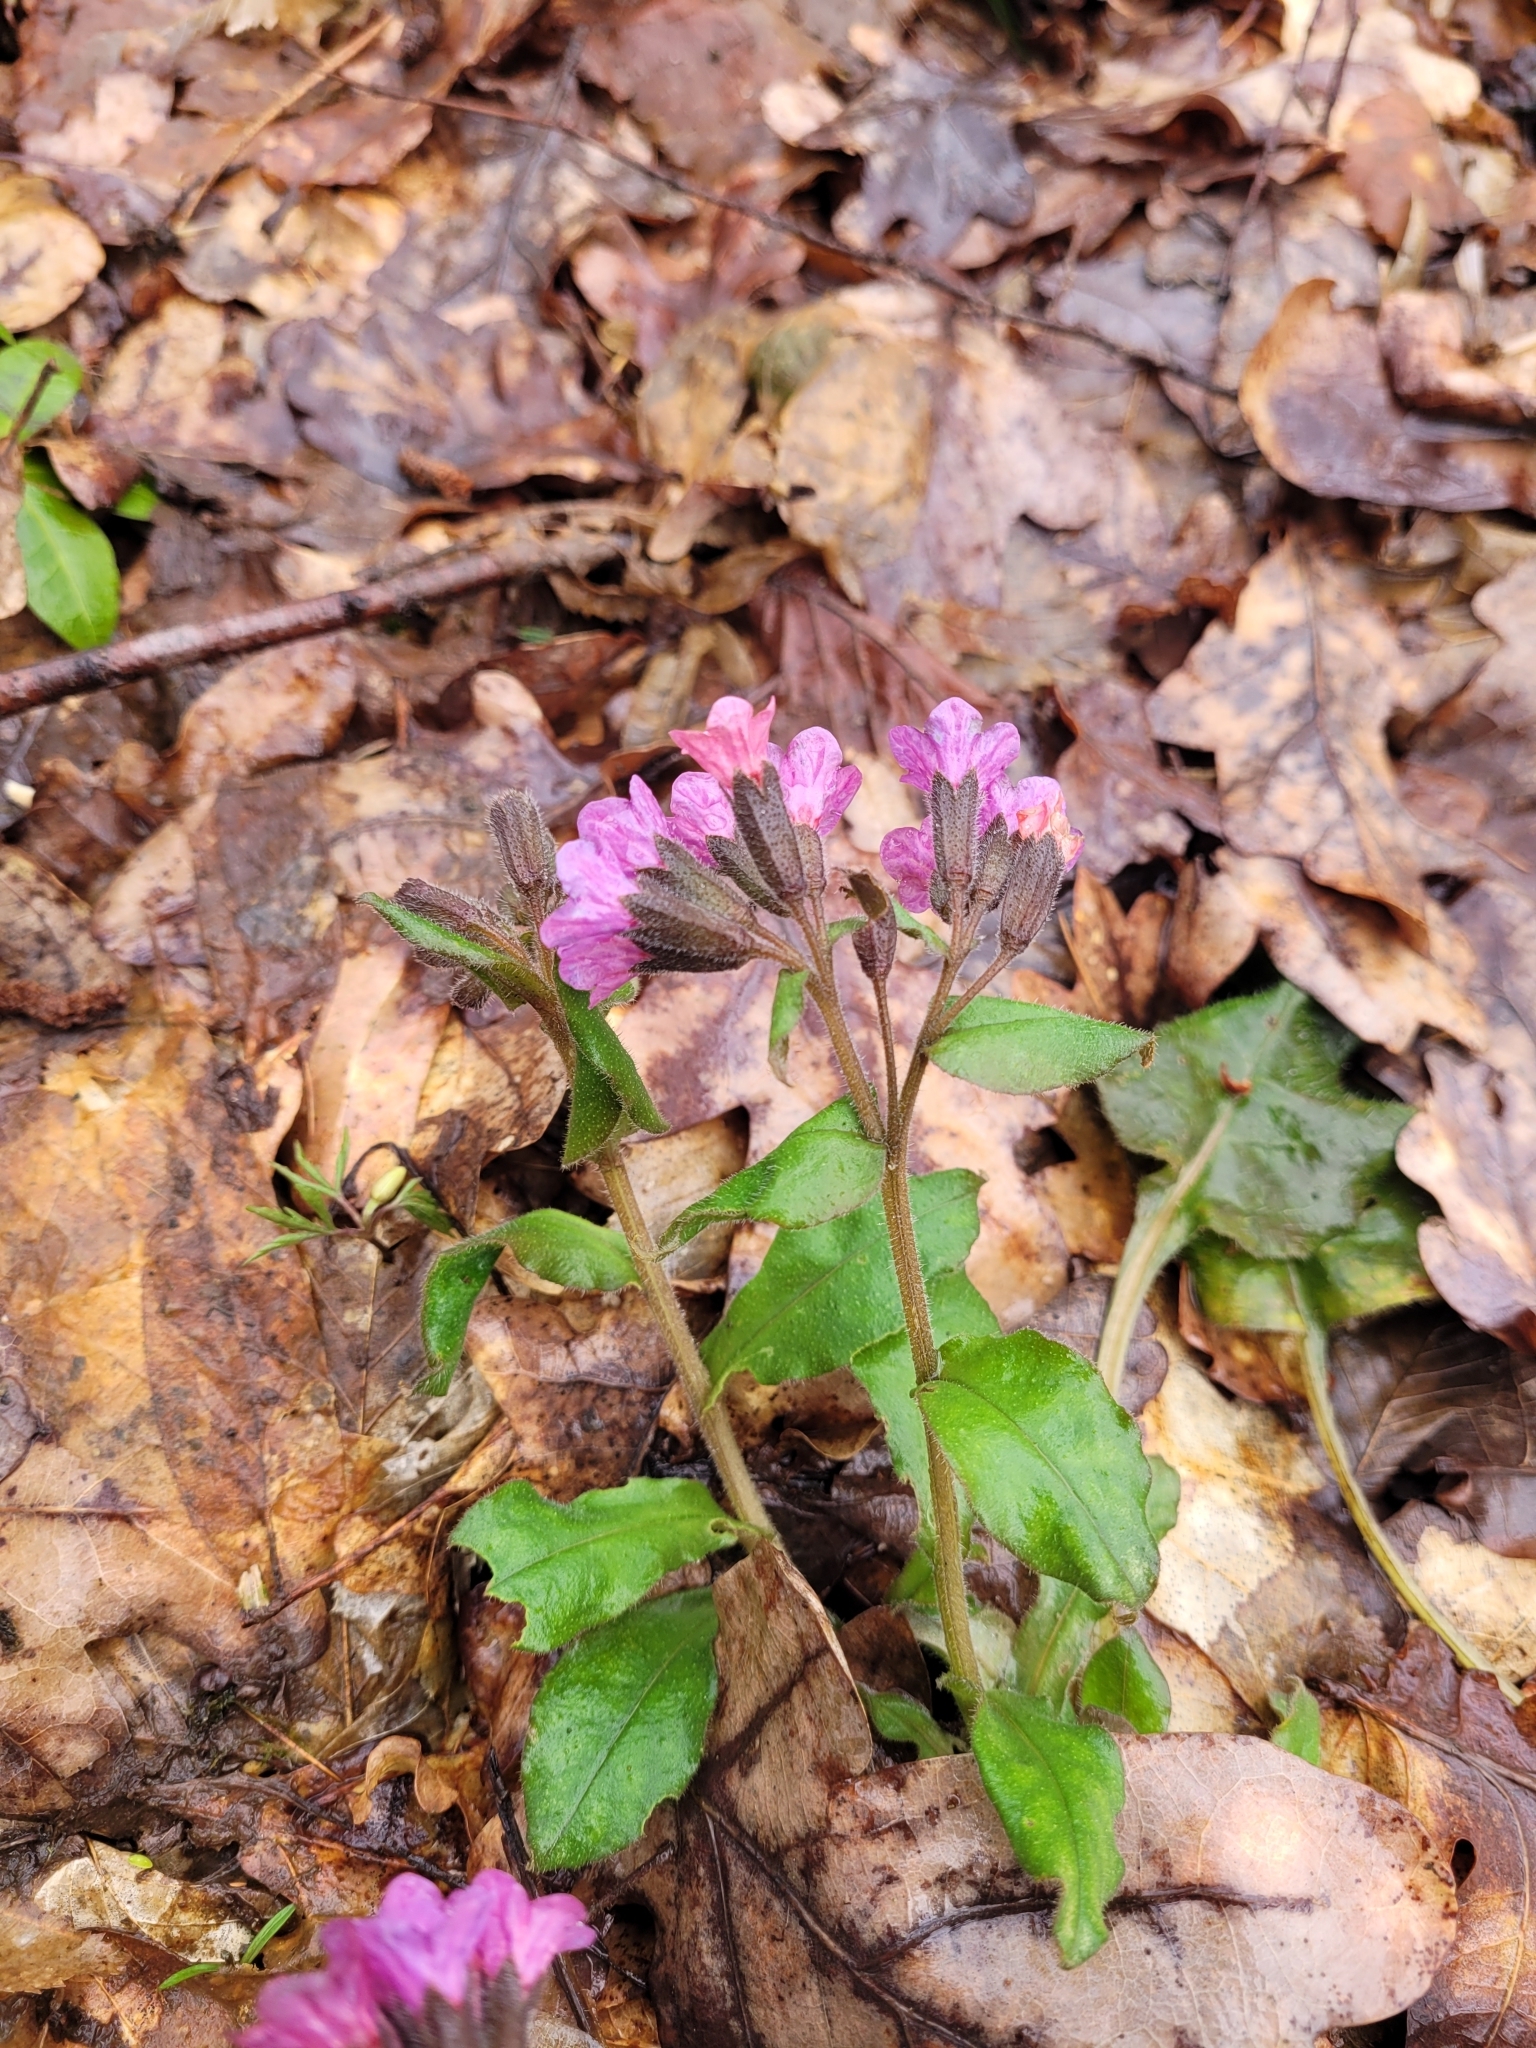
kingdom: Plantae
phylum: Tracheophyta
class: Magnoliopsida
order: Boraginales
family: Boraginaceae
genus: Pulmonaria
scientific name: Pulmonaria obscura
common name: Suffolk lungwort
